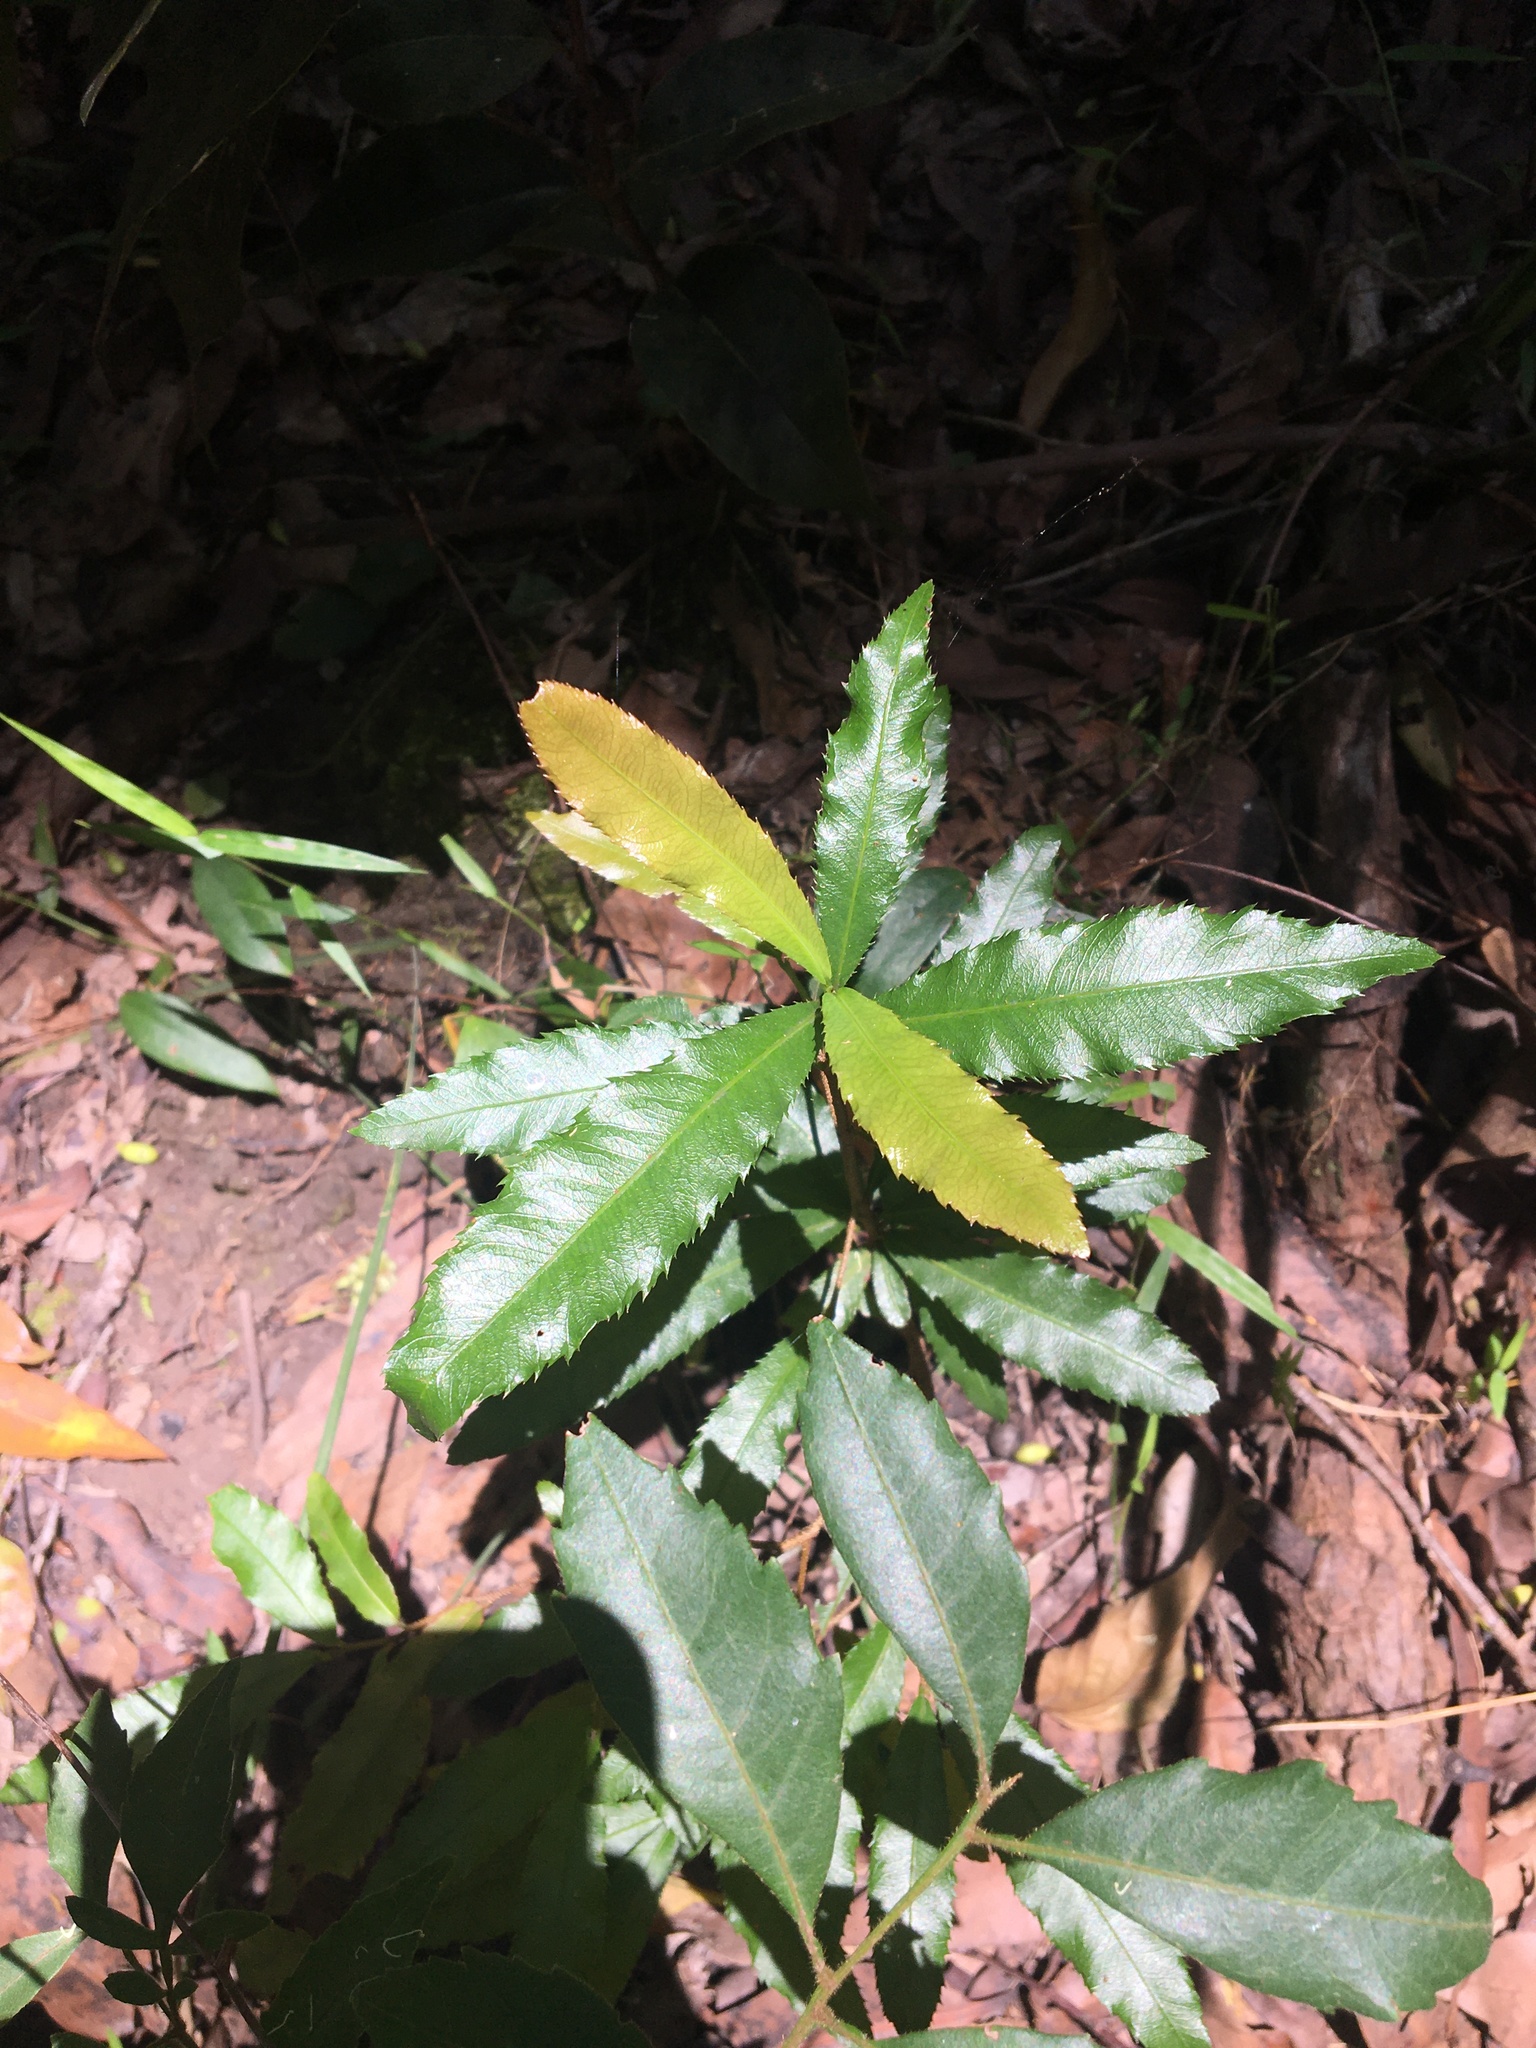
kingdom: Plantae
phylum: Tracheophyta
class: Magnoliopsida
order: Malpighiales
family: Ochnaceae
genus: Ochna
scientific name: Ochna serrulata
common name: Mickey mouse plant
